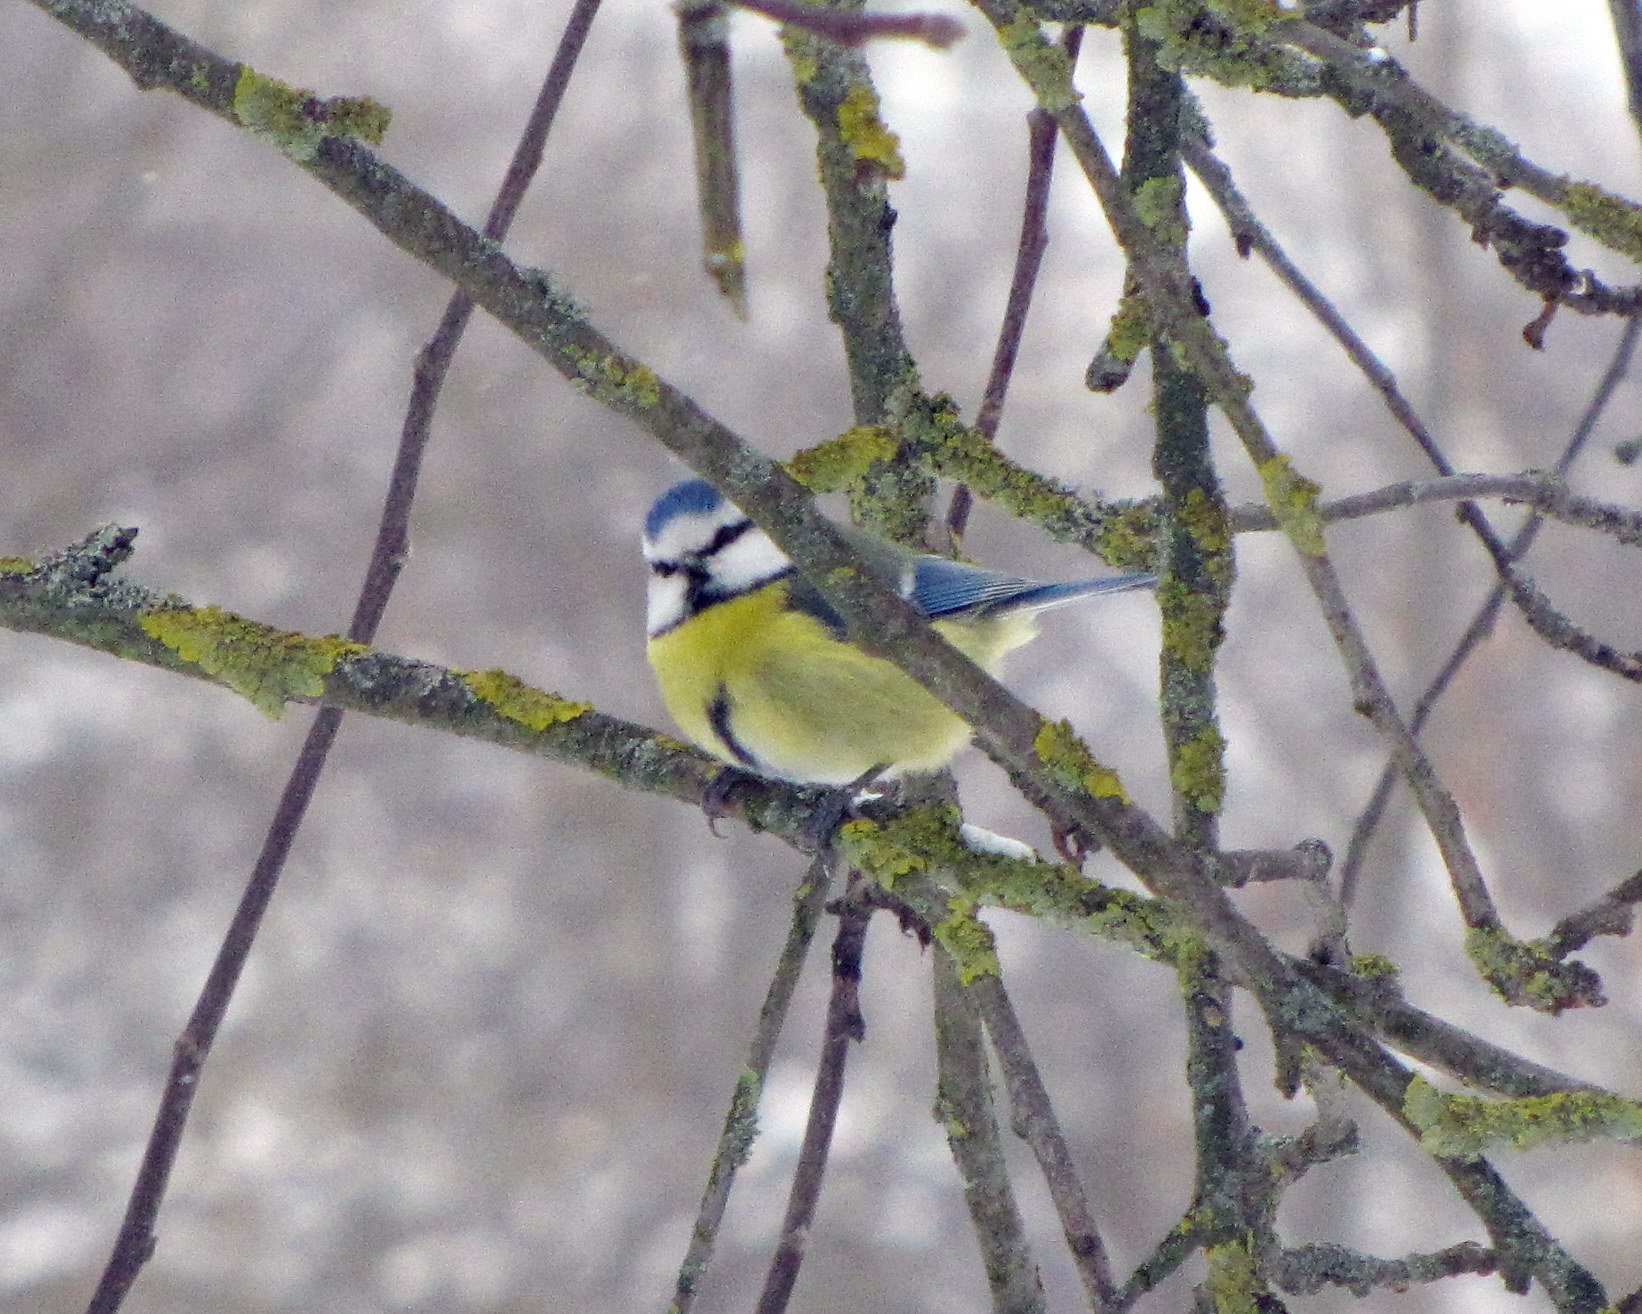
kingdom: Animalia
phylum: Chordata
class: Aves
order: Passeriformes
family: Paridae
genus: Cyanistes
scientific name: Cyanistes caeruleus
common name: Eurasian blue tit
